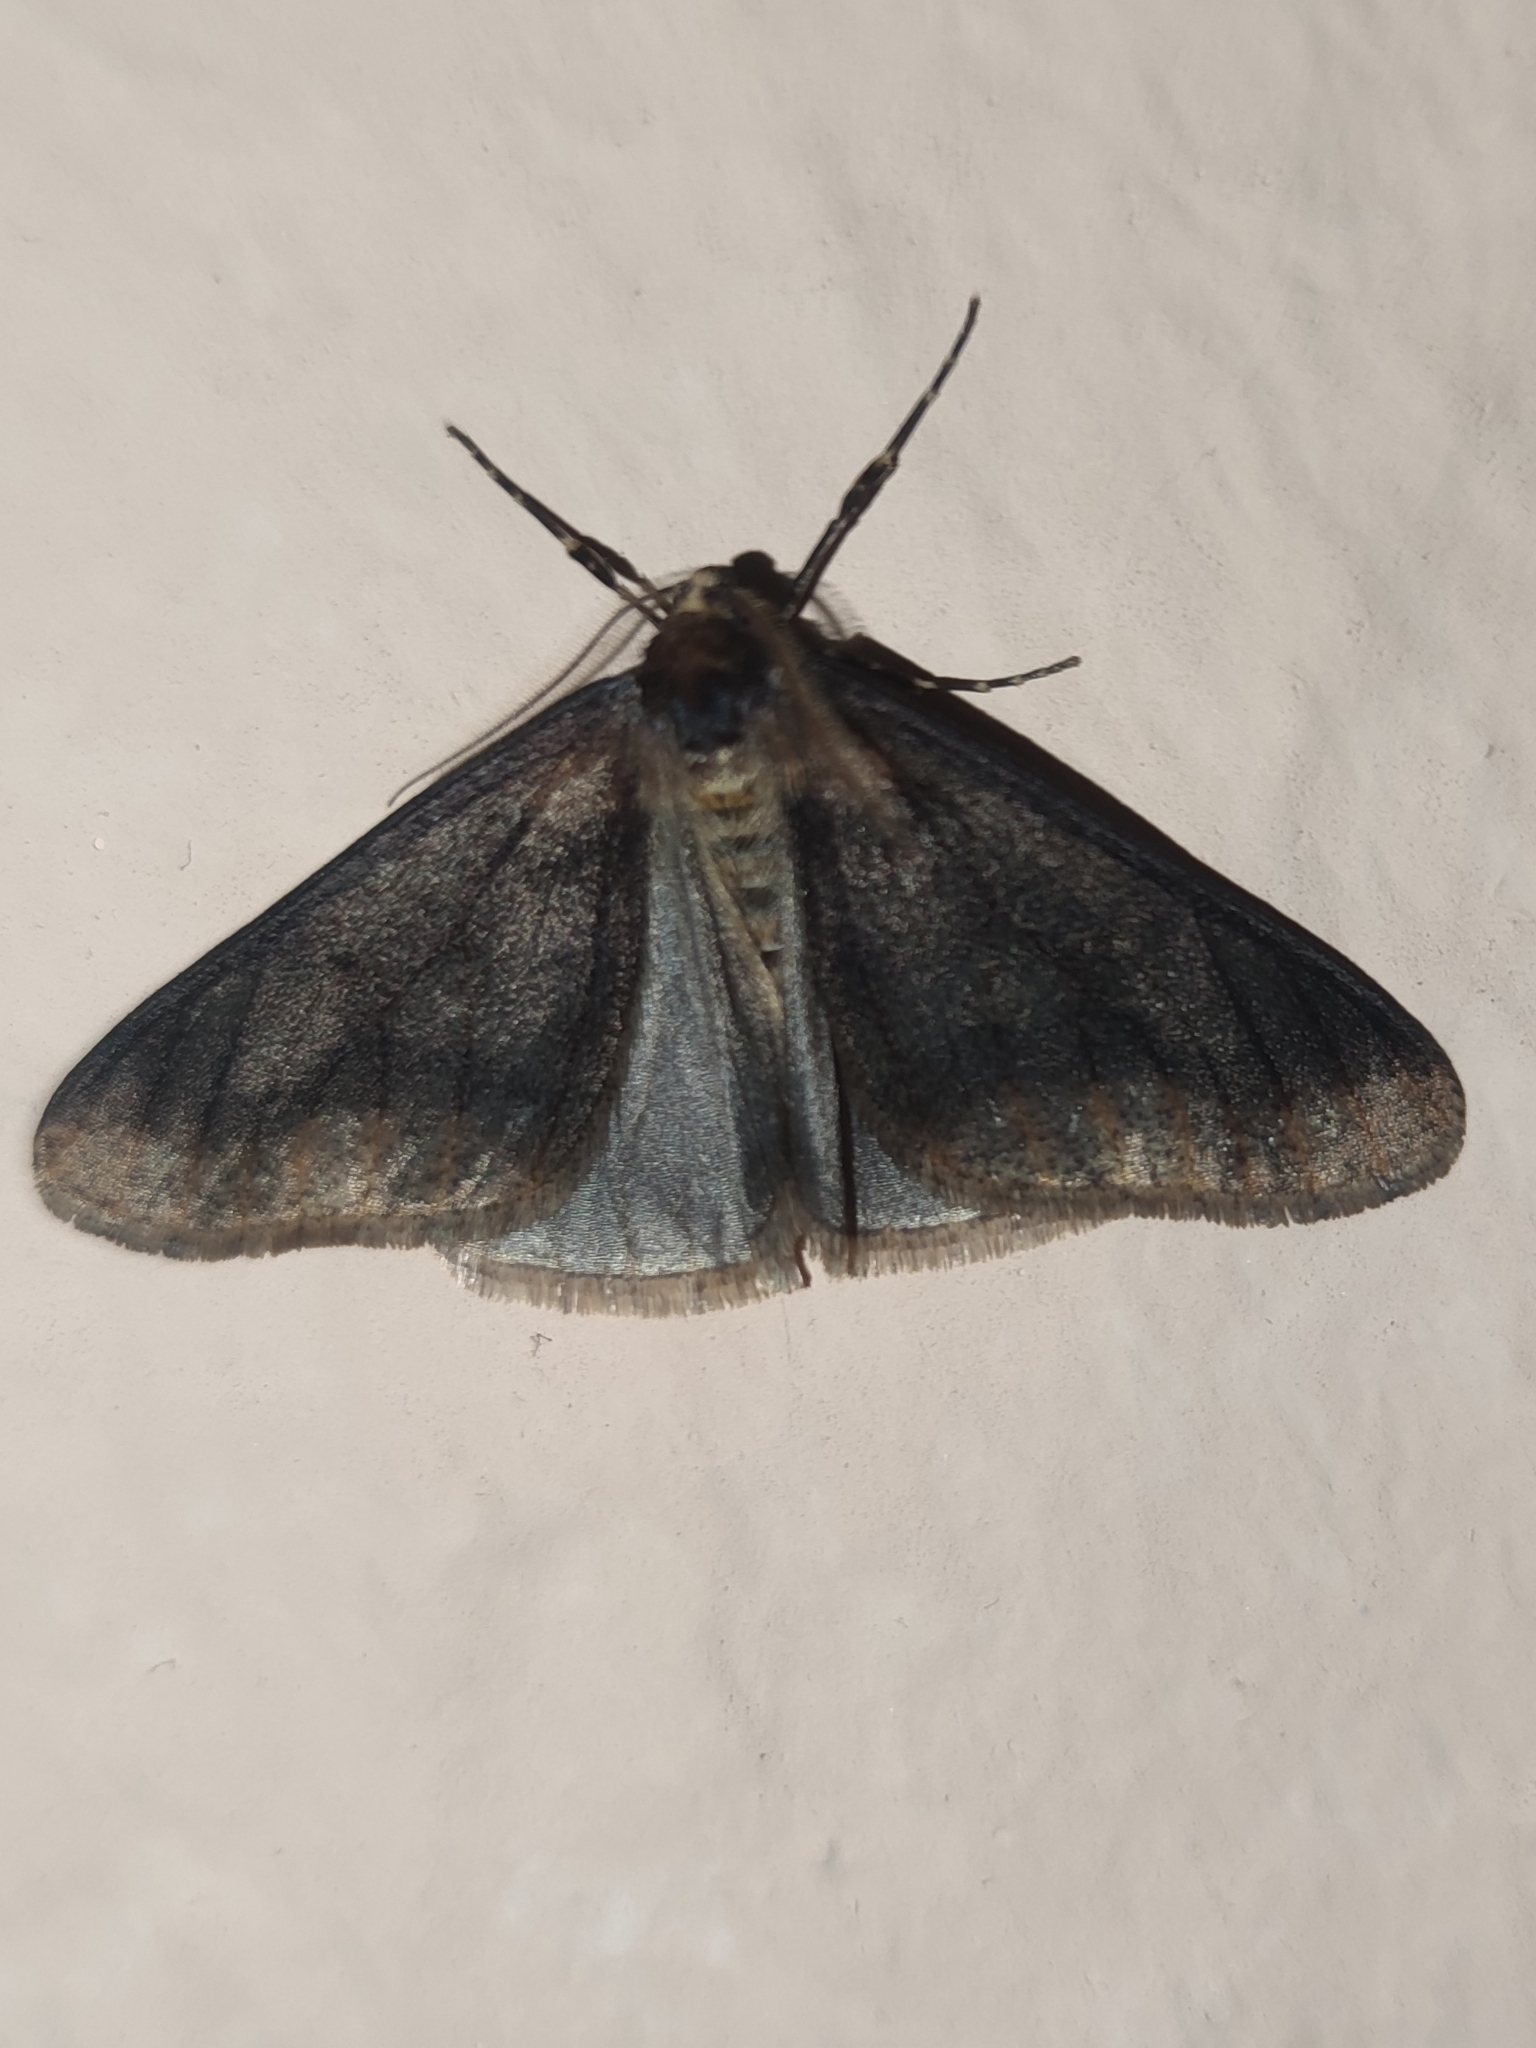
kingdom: Animalia
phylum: Arthropoda
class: Insecta
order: Lepidoptera
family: Geometridae
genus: Erannis
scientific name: Erannis defoliaria
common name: Mottled umber
